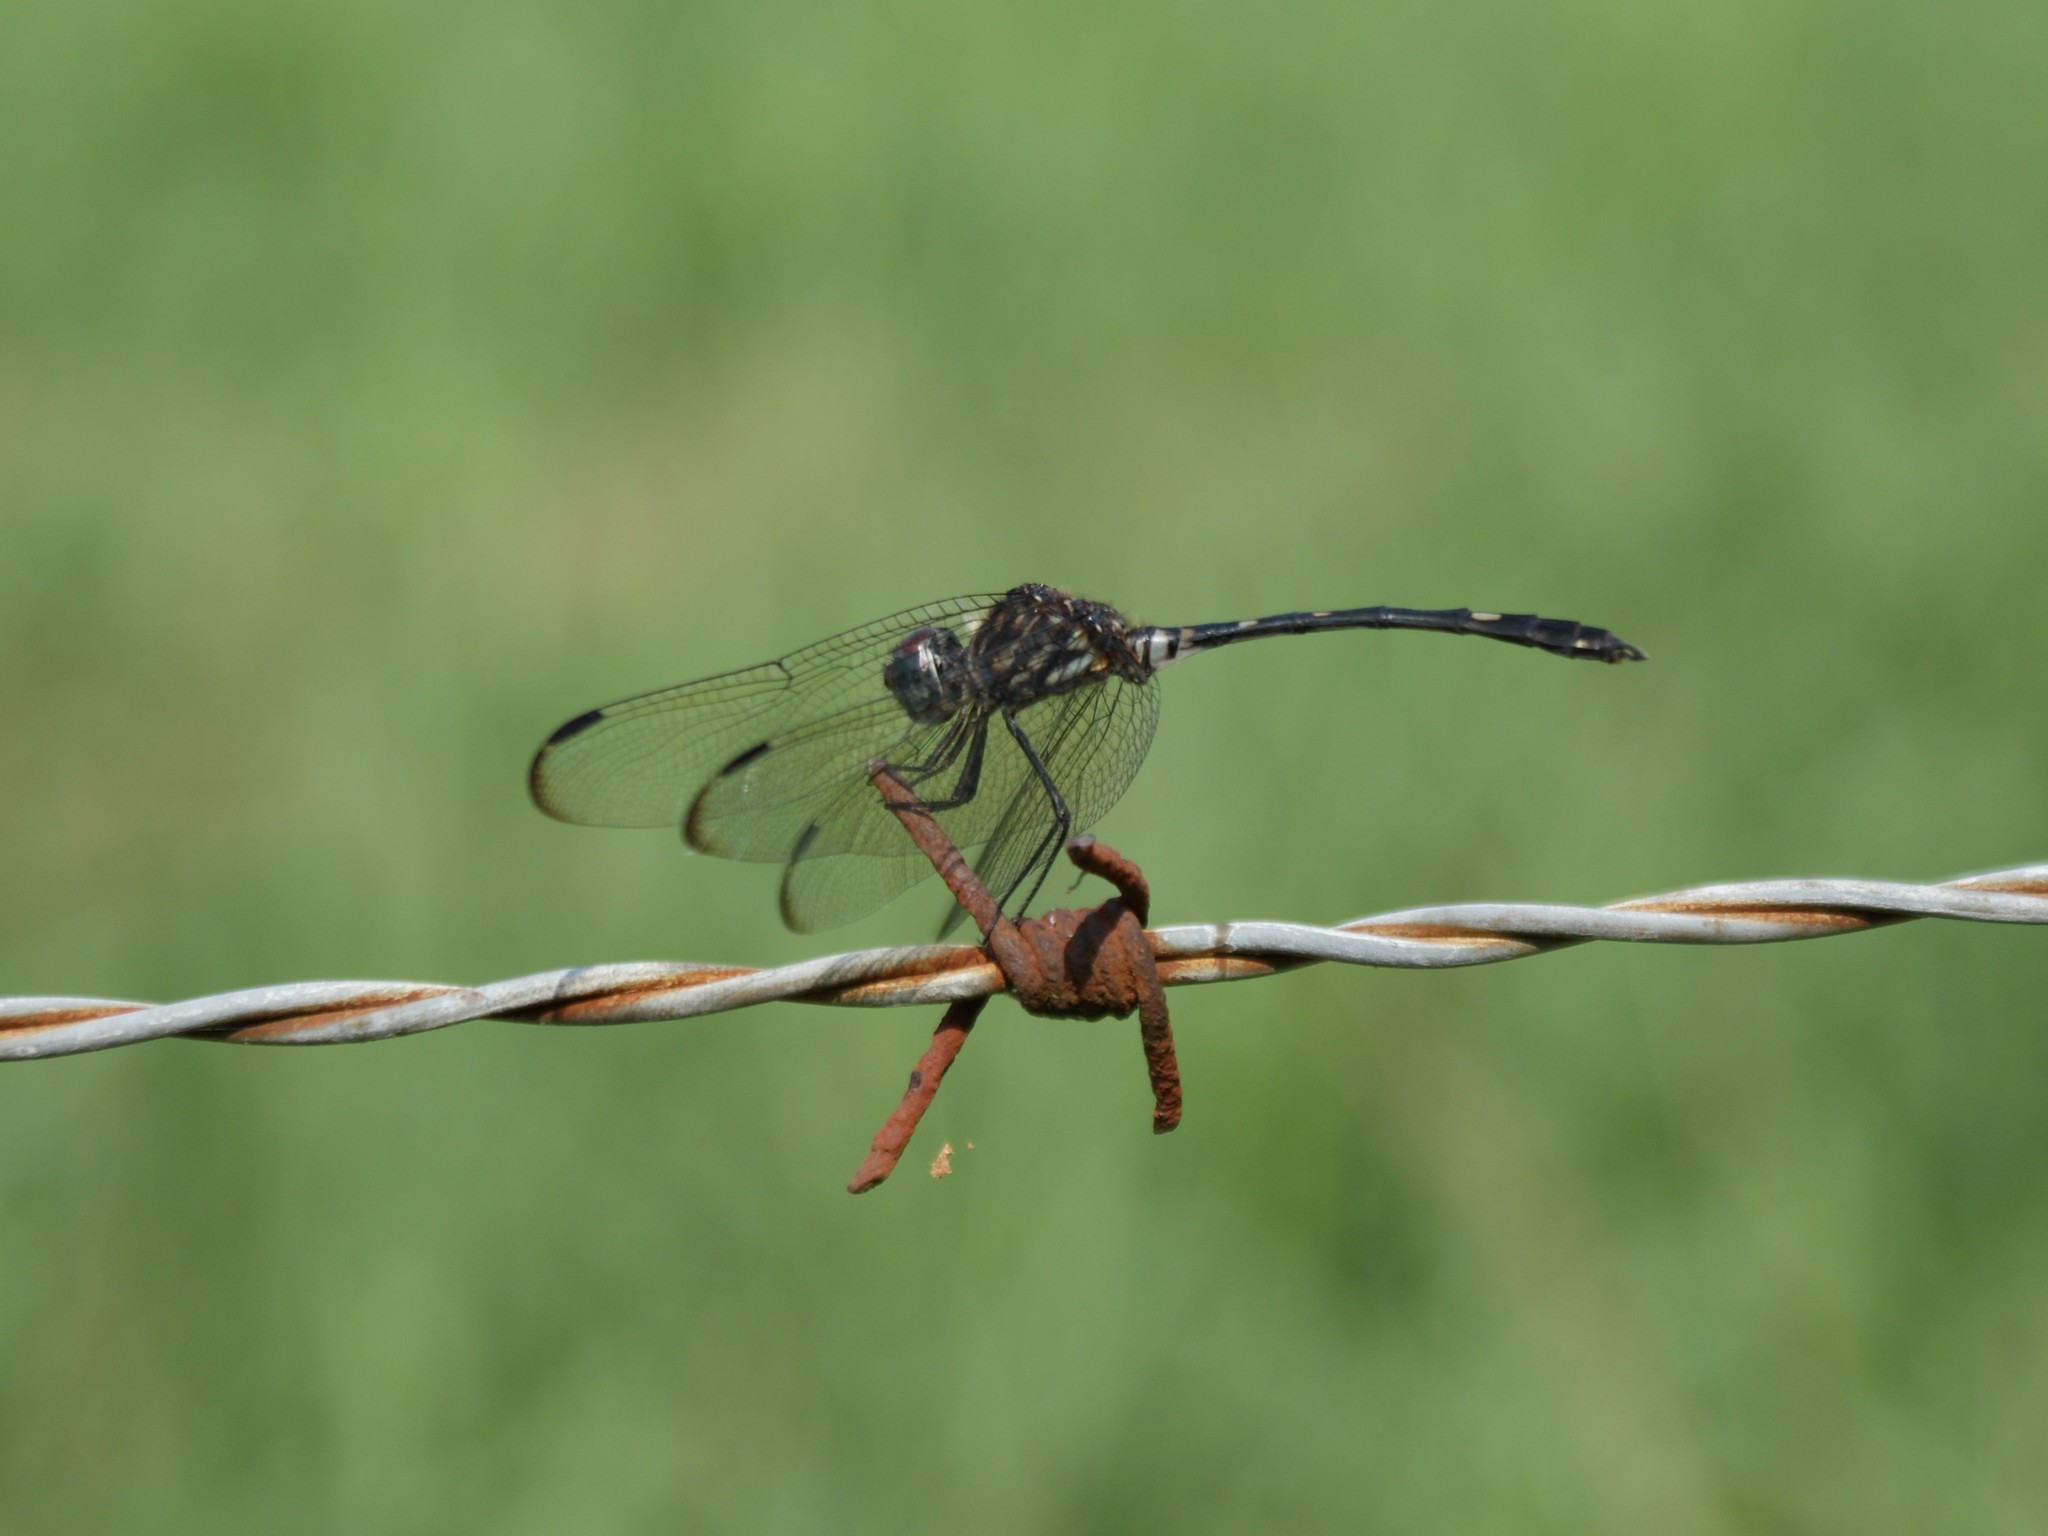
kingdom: Animalia
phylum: Arthropoda
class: Insecta
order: Odonata
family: Libellulidae
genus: Dythemis
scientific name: Dythemis velox
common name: Swift setwing
